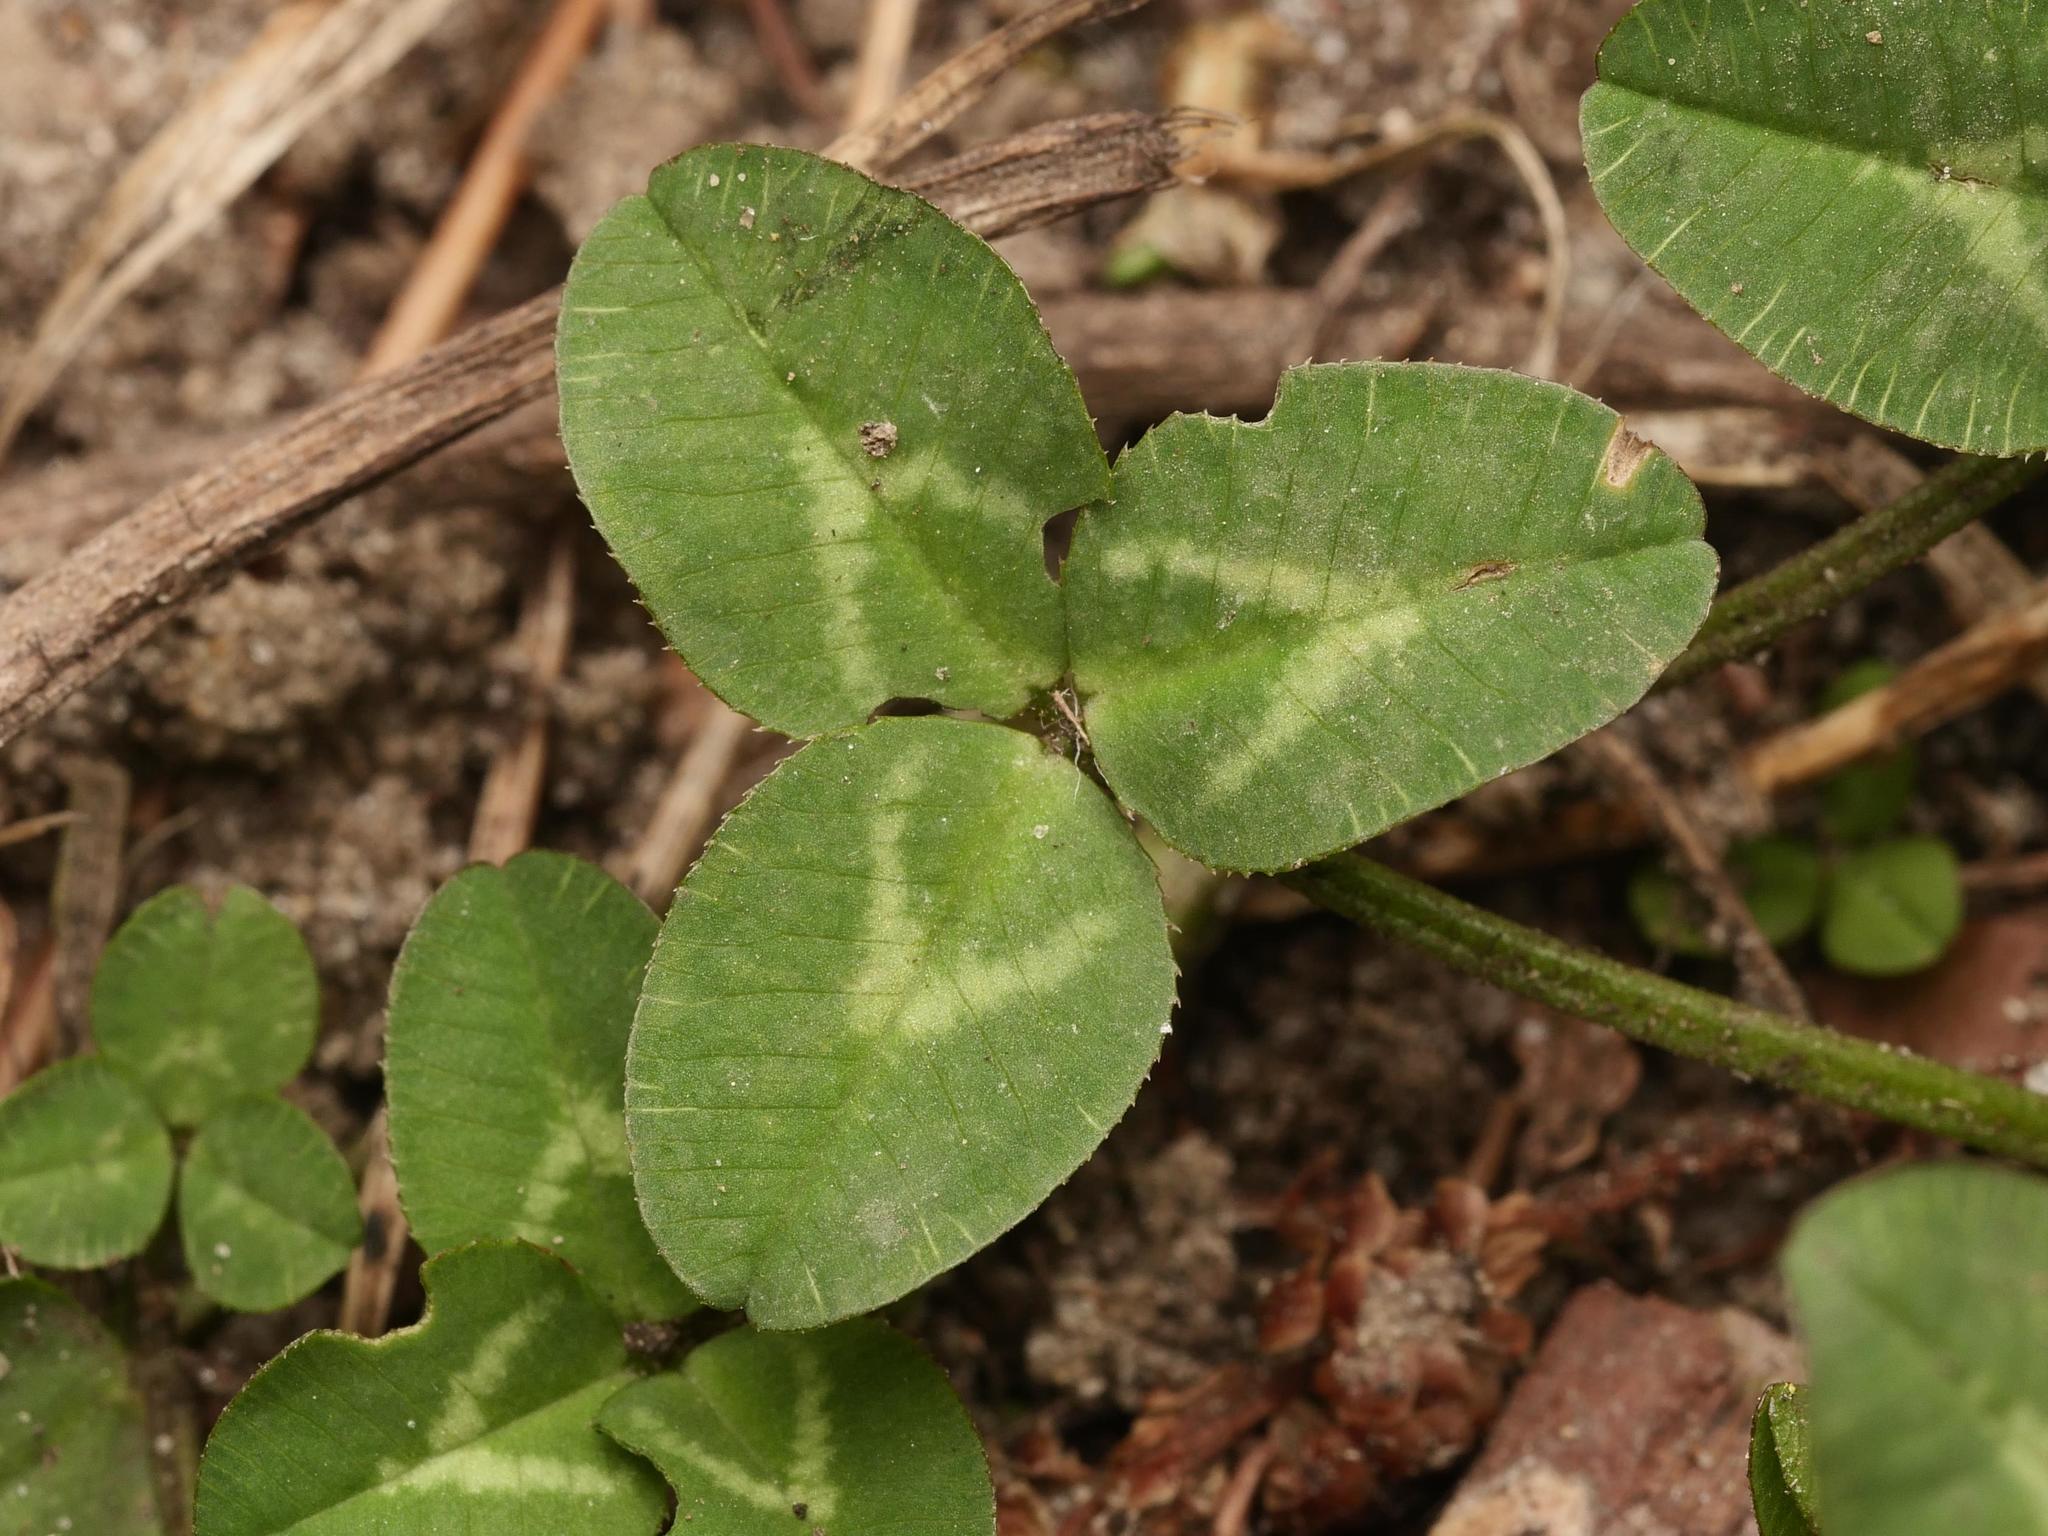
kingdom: Plantae
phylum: Tracheophyta
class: Magnoliopsida
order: Fabales
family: Fabaceae
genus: Trifolium
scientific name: Trifolium repens
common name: White clover
